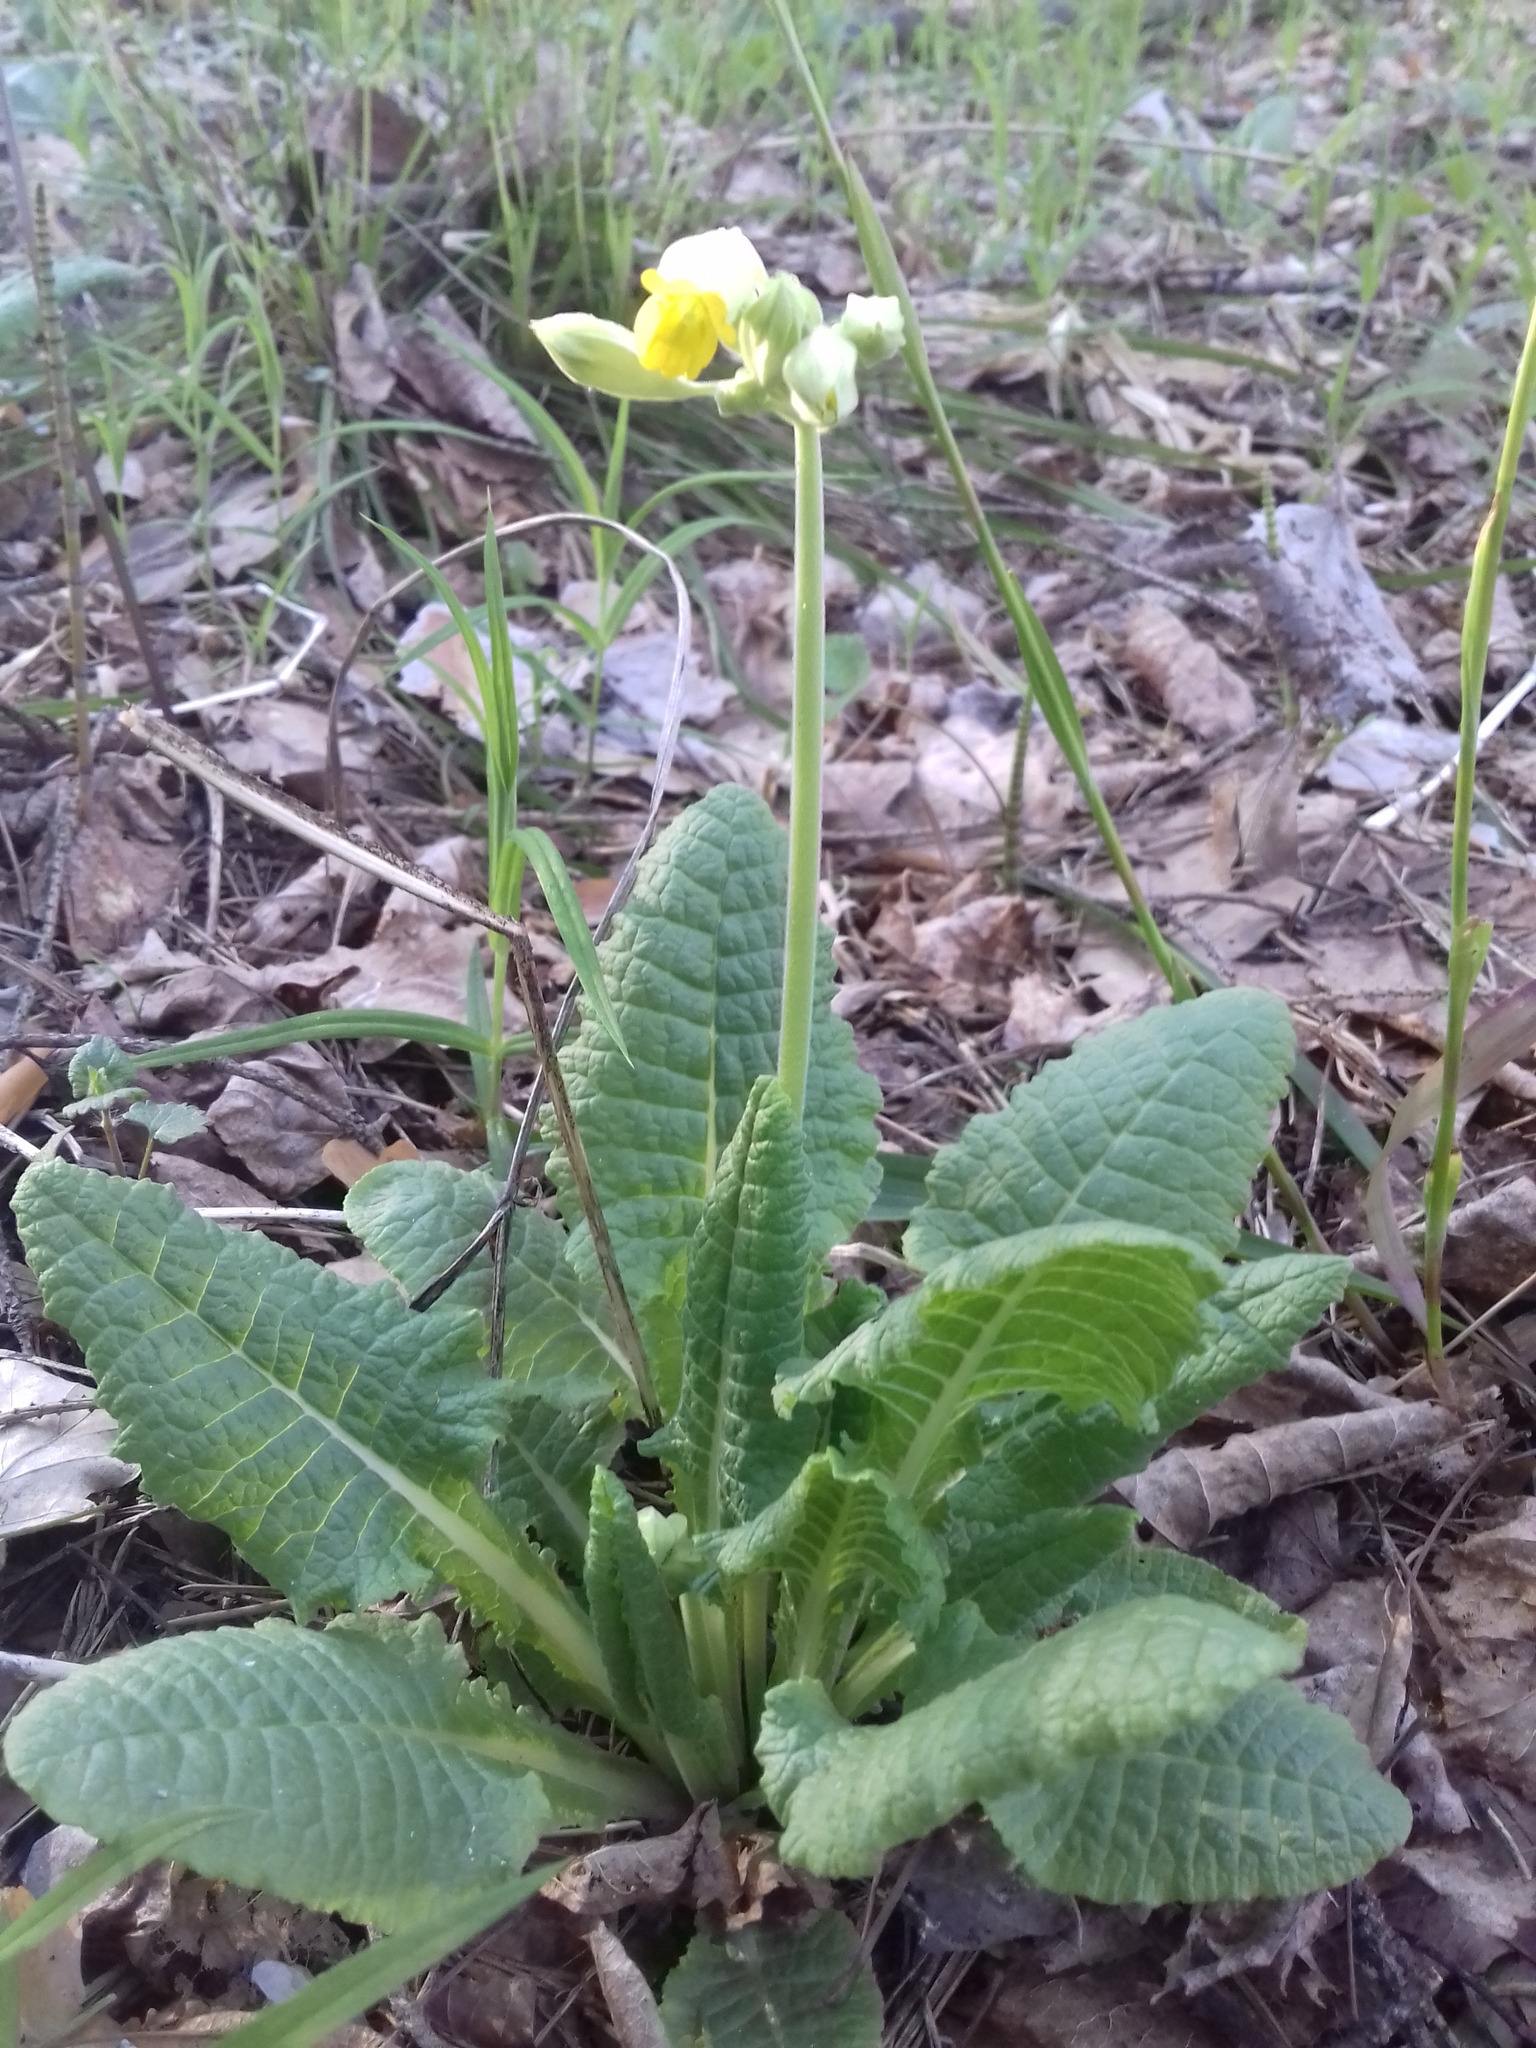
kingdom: Plantae
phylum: Tracheophyta
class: Magnoliopsida
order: Ericales
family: Primulaceae
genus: Primula
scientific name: Primula veris
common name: Cowslip
